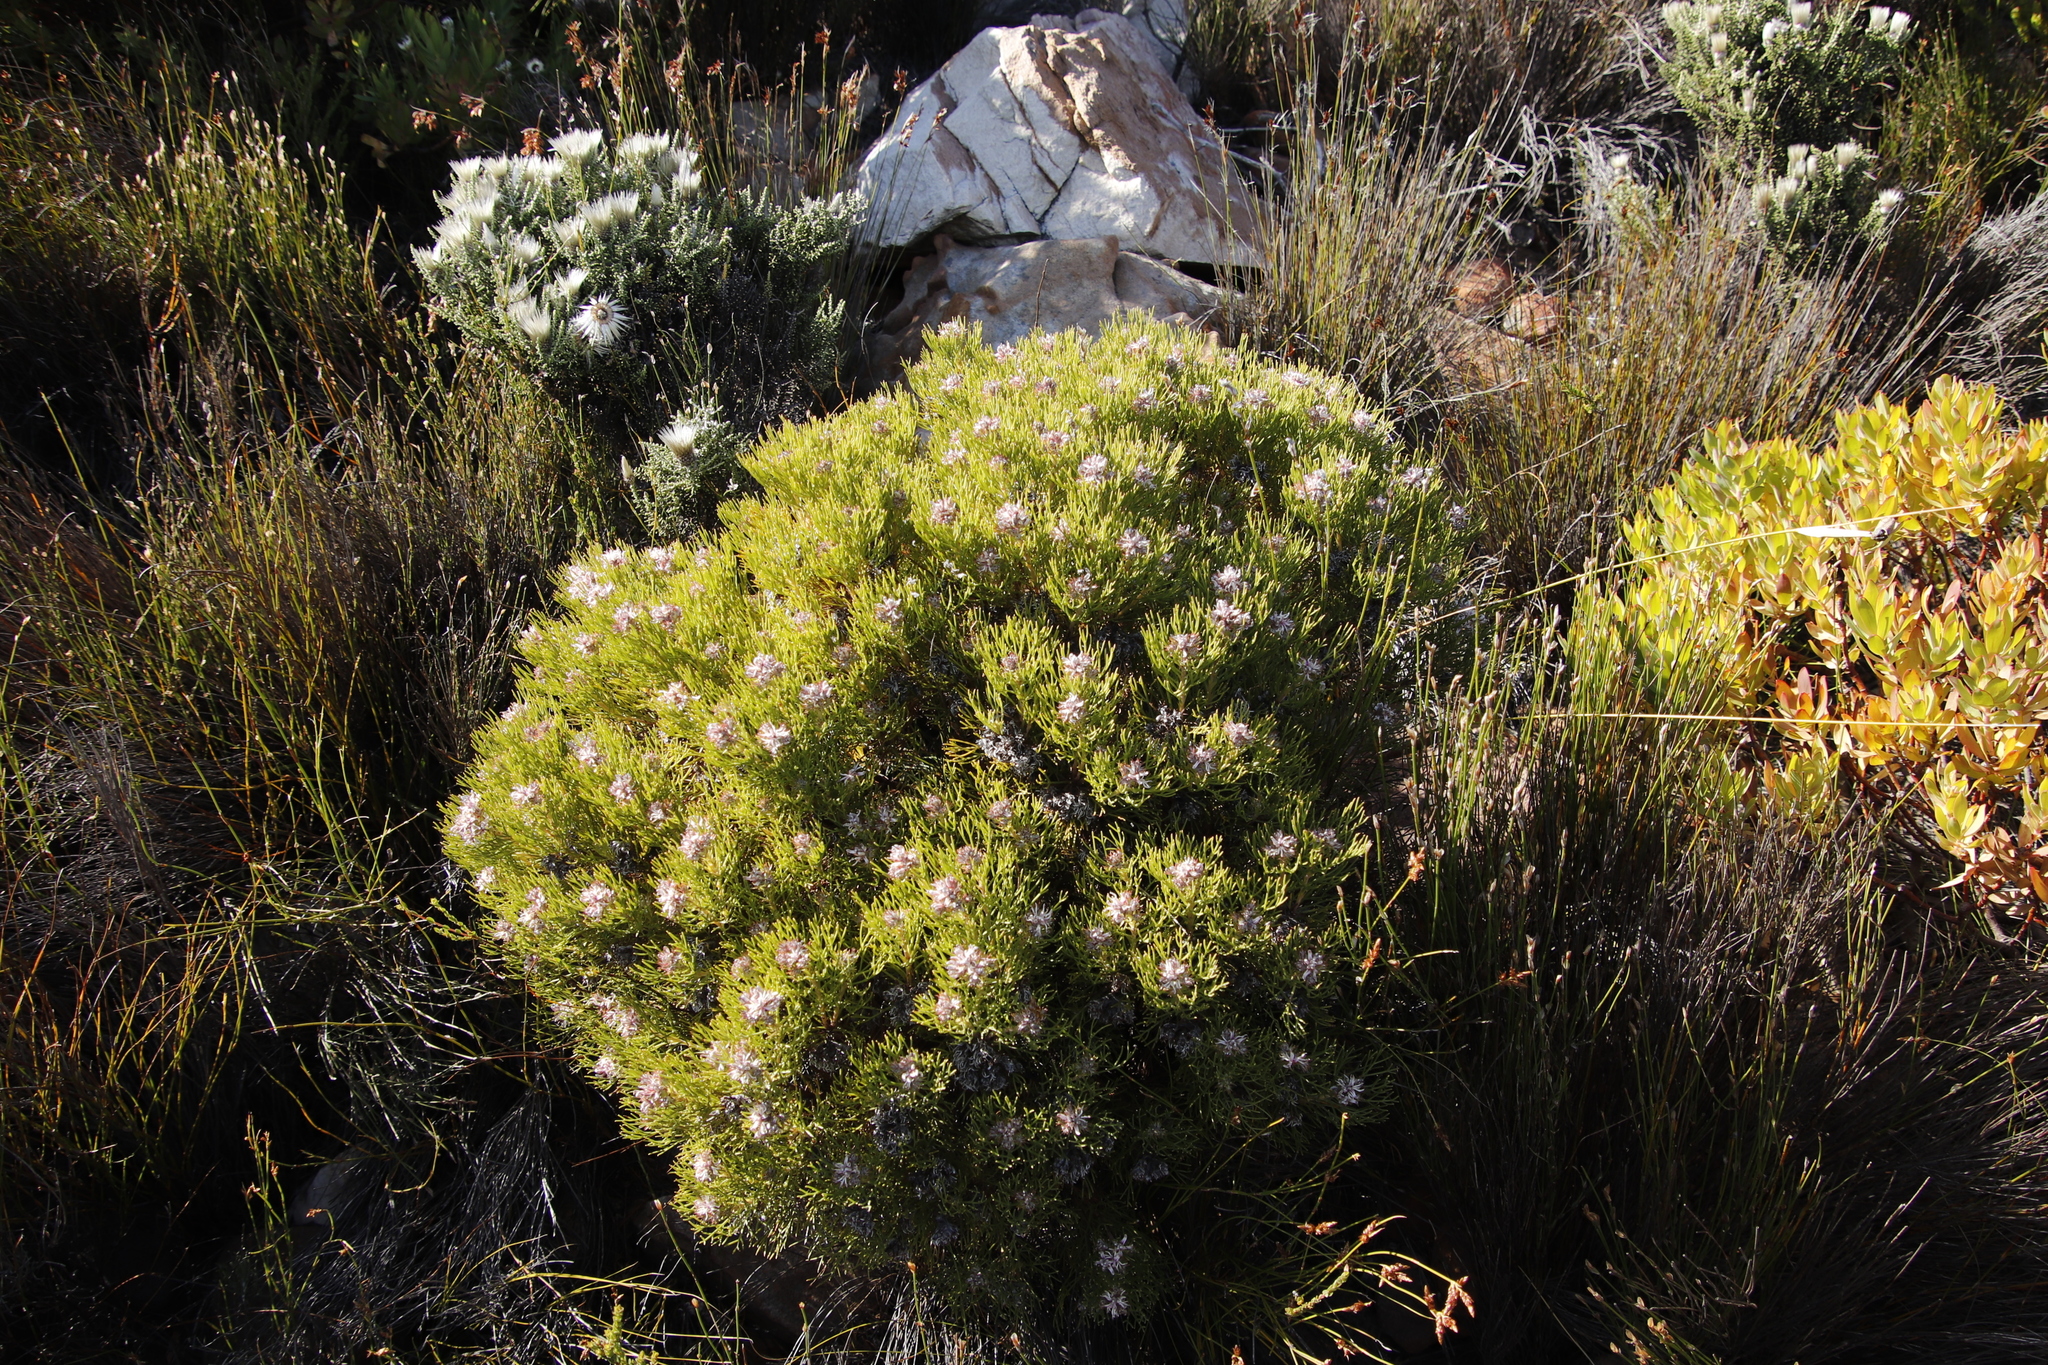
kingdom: Plantae
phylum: Tracheophyta
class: Magnoliopsida
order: Proteales
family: Proteaceae
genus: Serruria
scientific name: Serruria ascendens
